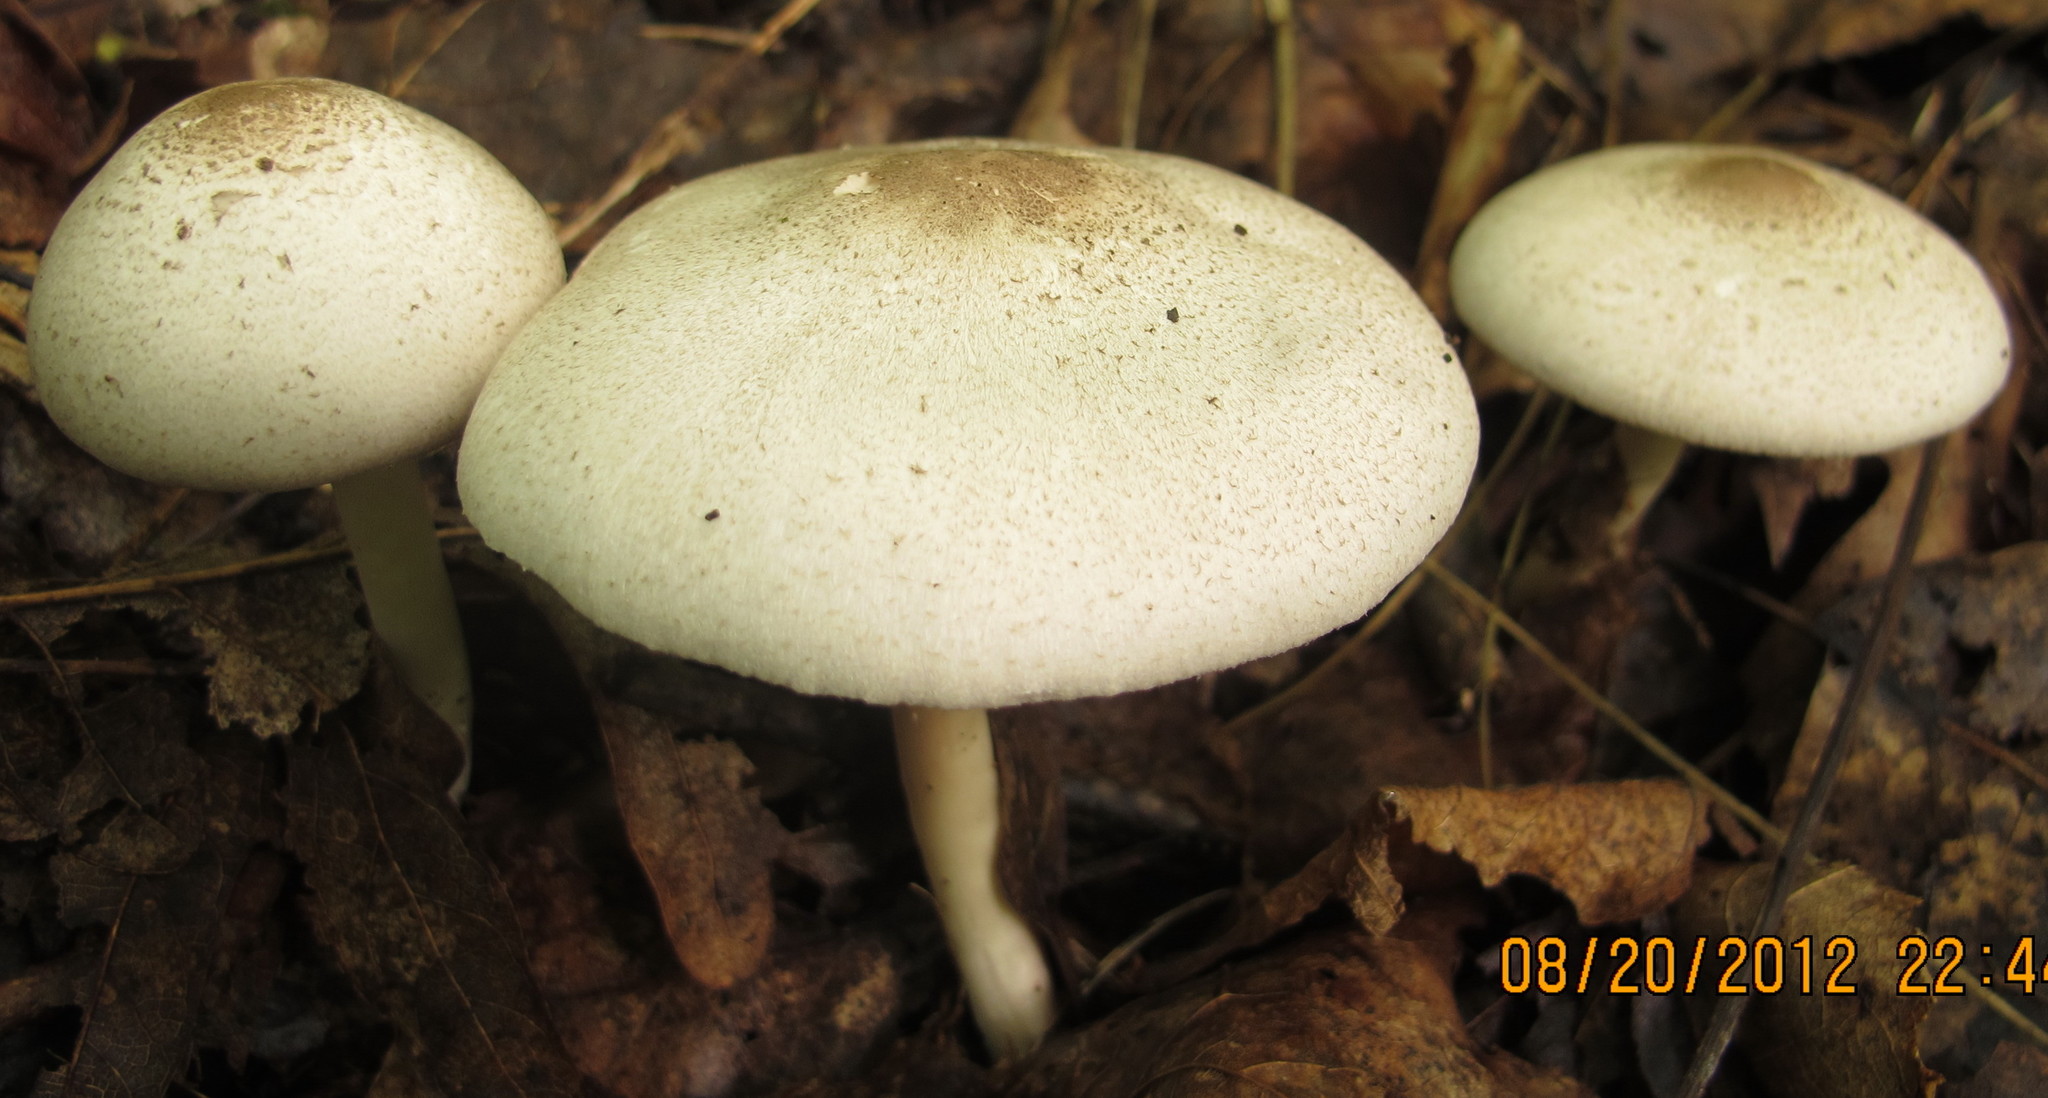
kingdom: Fungi
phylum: Basidiomycota
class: Agaricomycetes
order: Agaricales
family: Agaricaceae
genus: Agaricus
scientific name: Agaricus placomyces
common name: Inky mushroom
